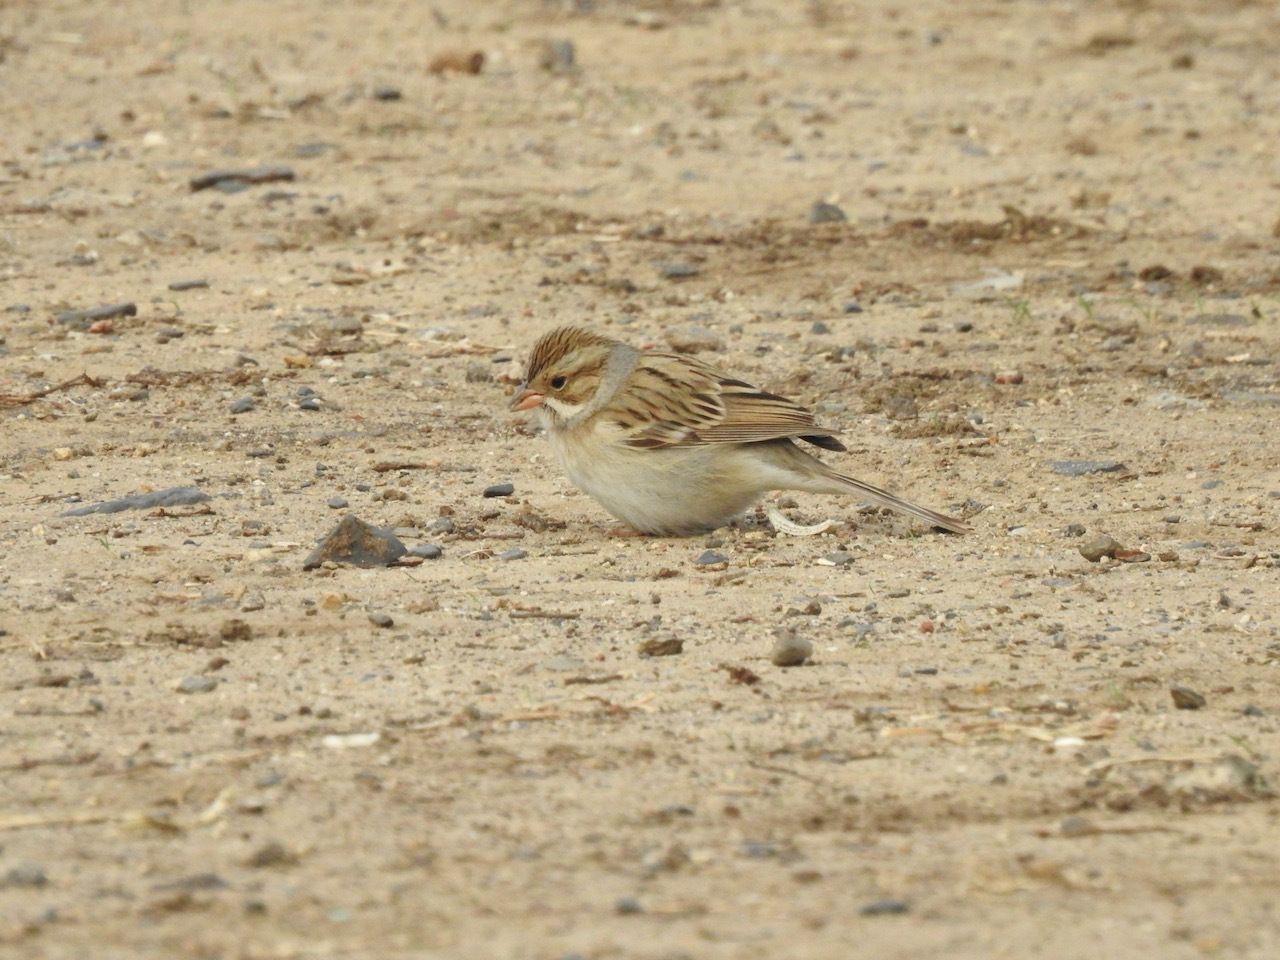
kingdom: Animalia
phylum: Chordata
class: Aves
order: Passeriformes
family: Passerellidae
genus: Spizella
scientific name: Spizella pallida
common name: Clay-colored sparrow
